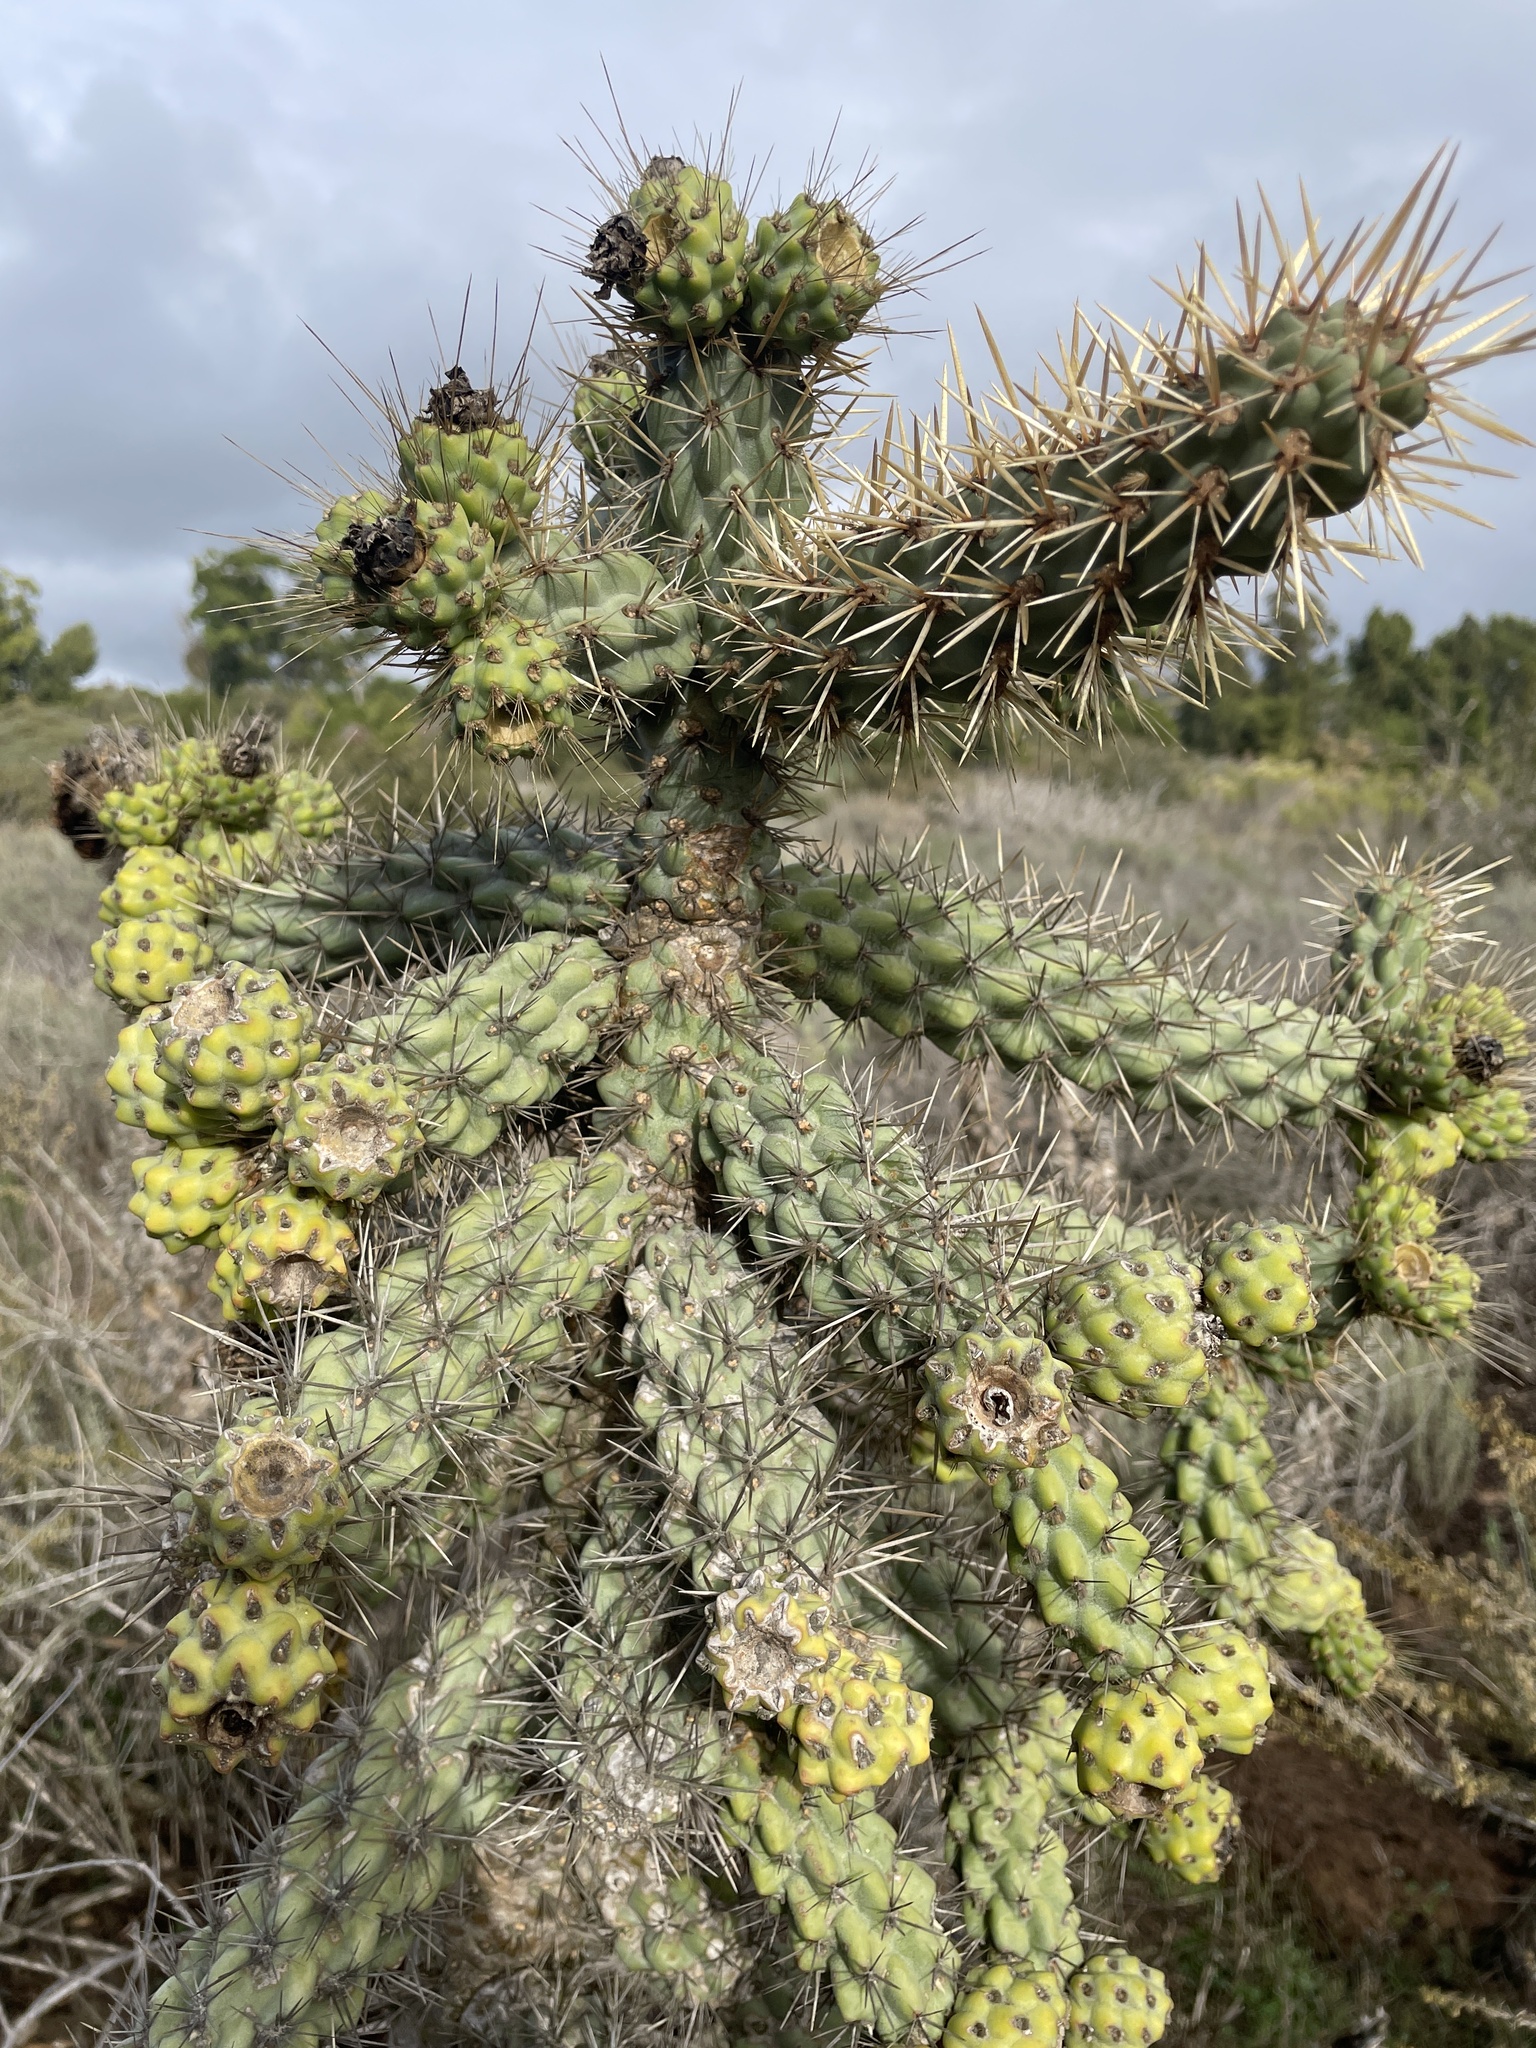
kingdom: Plantae
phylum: Tracheophyta
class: Magnoliopsida
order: Caryophyllales
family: Cactaceae
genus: Cylindropuntia
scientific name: Cylindropuntia prolifera
